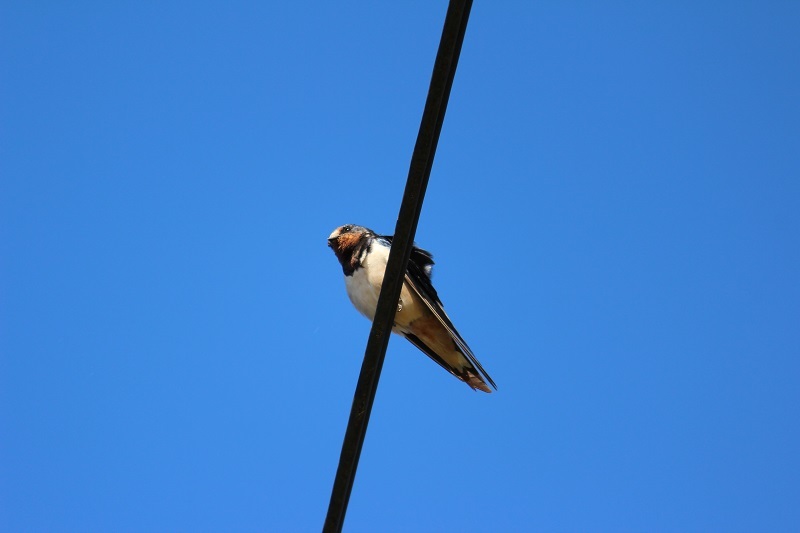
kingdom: Animalia
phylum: Chordata
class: Aves
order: Passeriformes
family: Hirundinidae
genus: Hirundo
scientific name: Hirundo rustica
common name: Barn swallow
